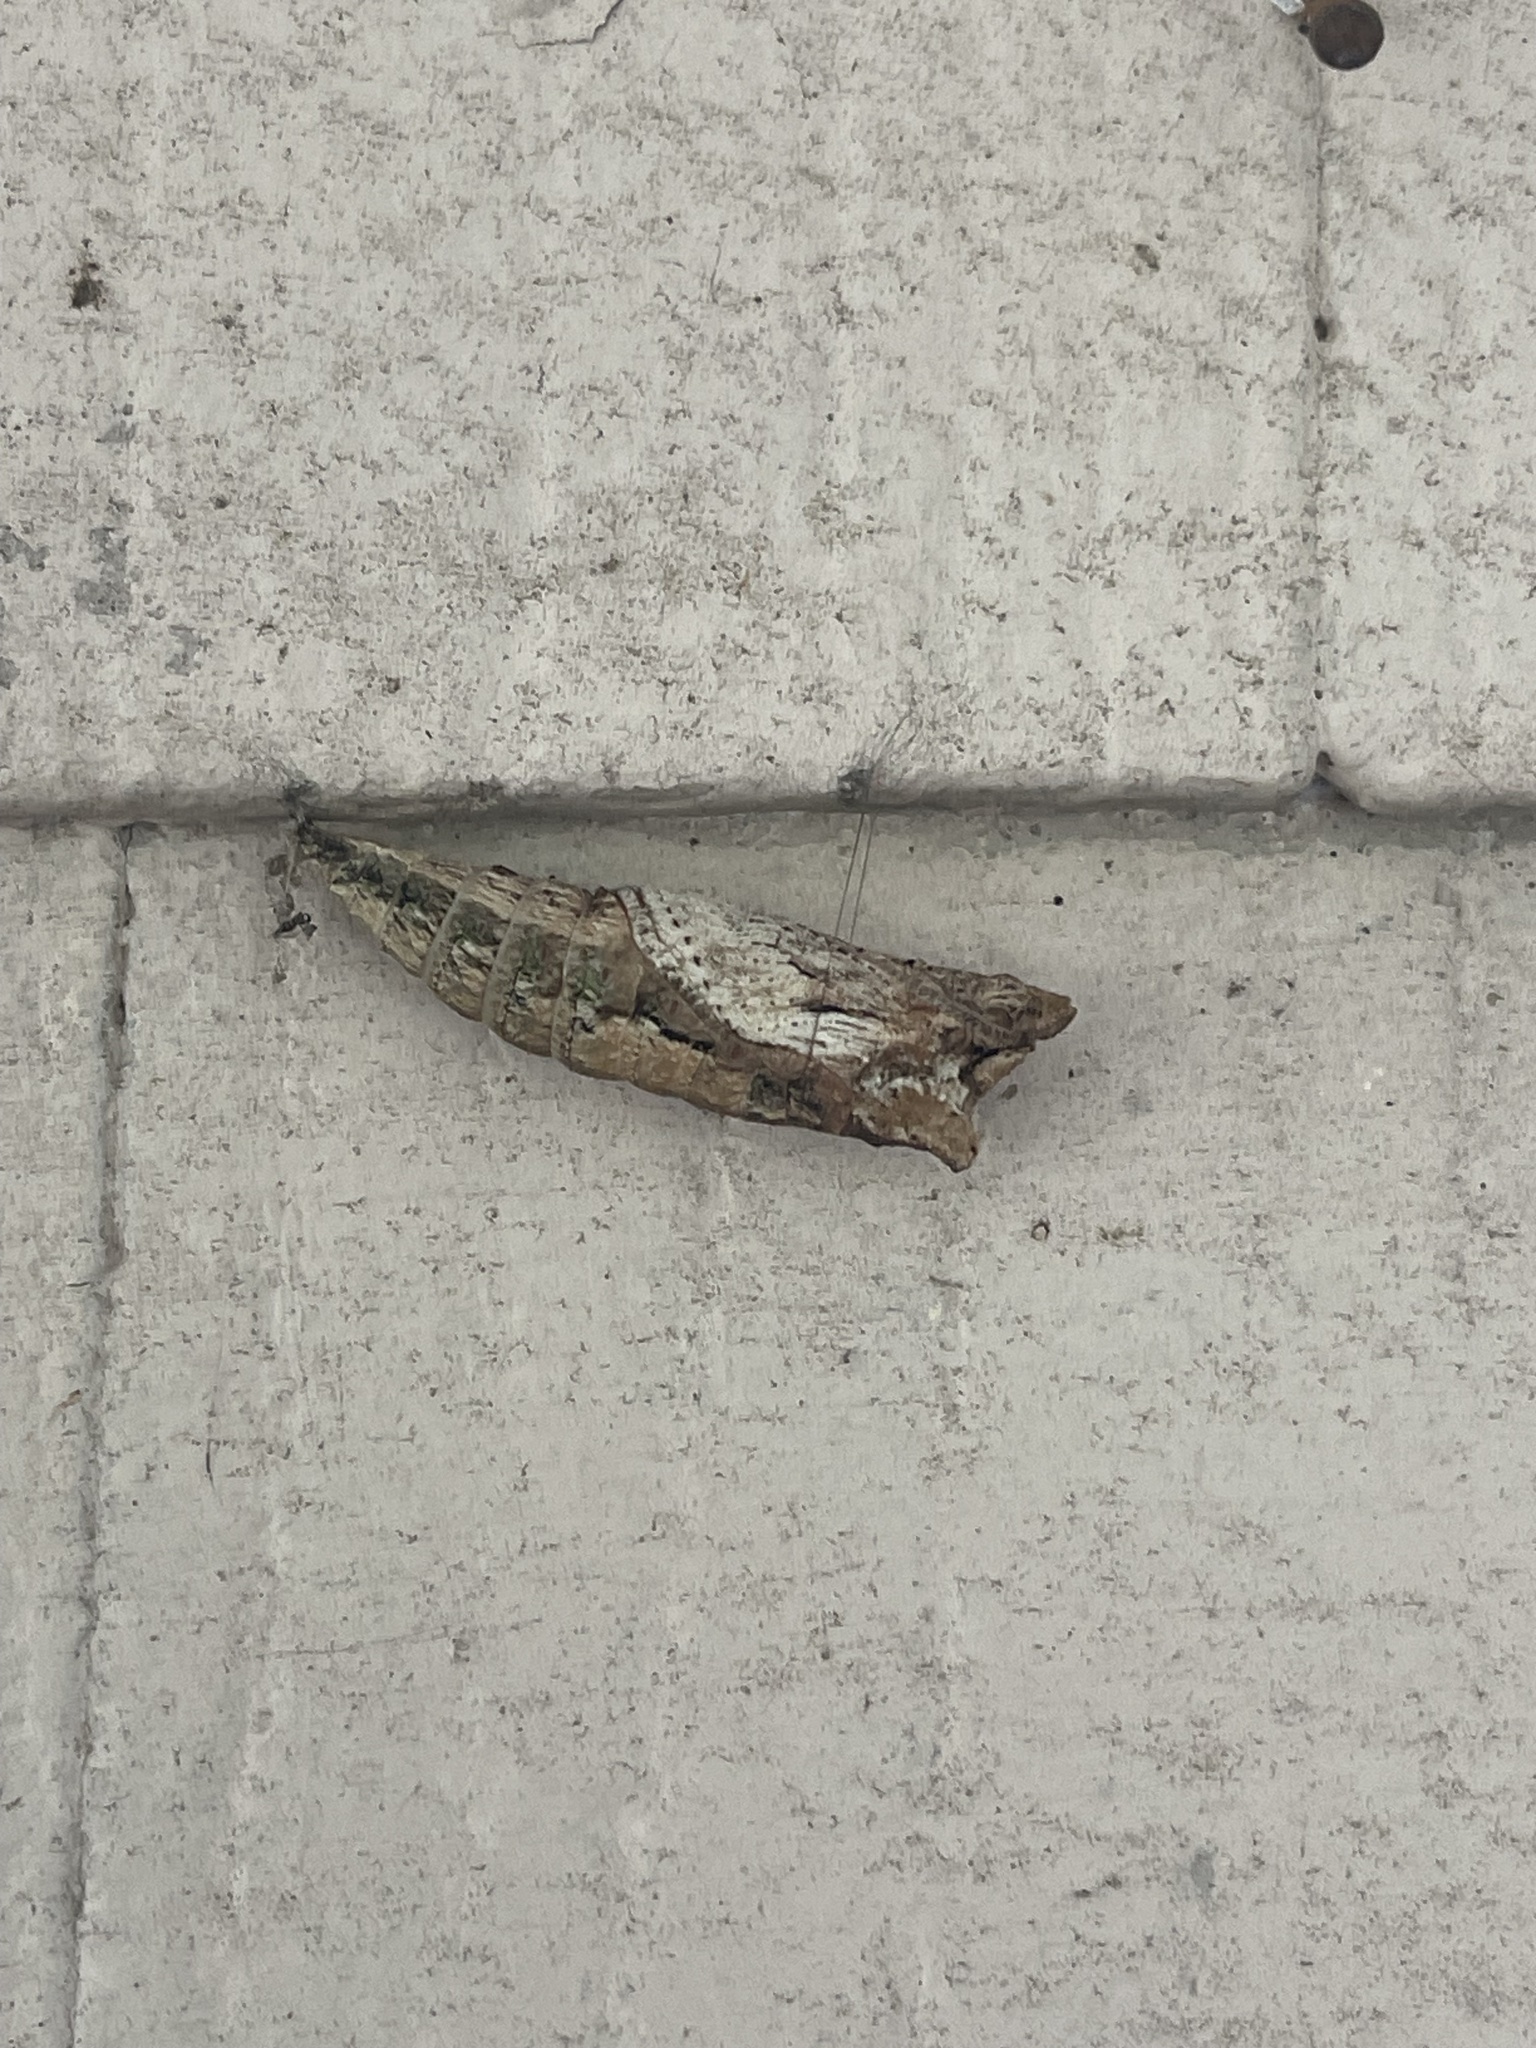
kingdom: Animalia
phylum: Arthropoda
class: Insecta
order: Lepidoptera
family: Nymphalidae
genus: Dione
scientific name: Dione vanillae
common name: Gulf fritillary
